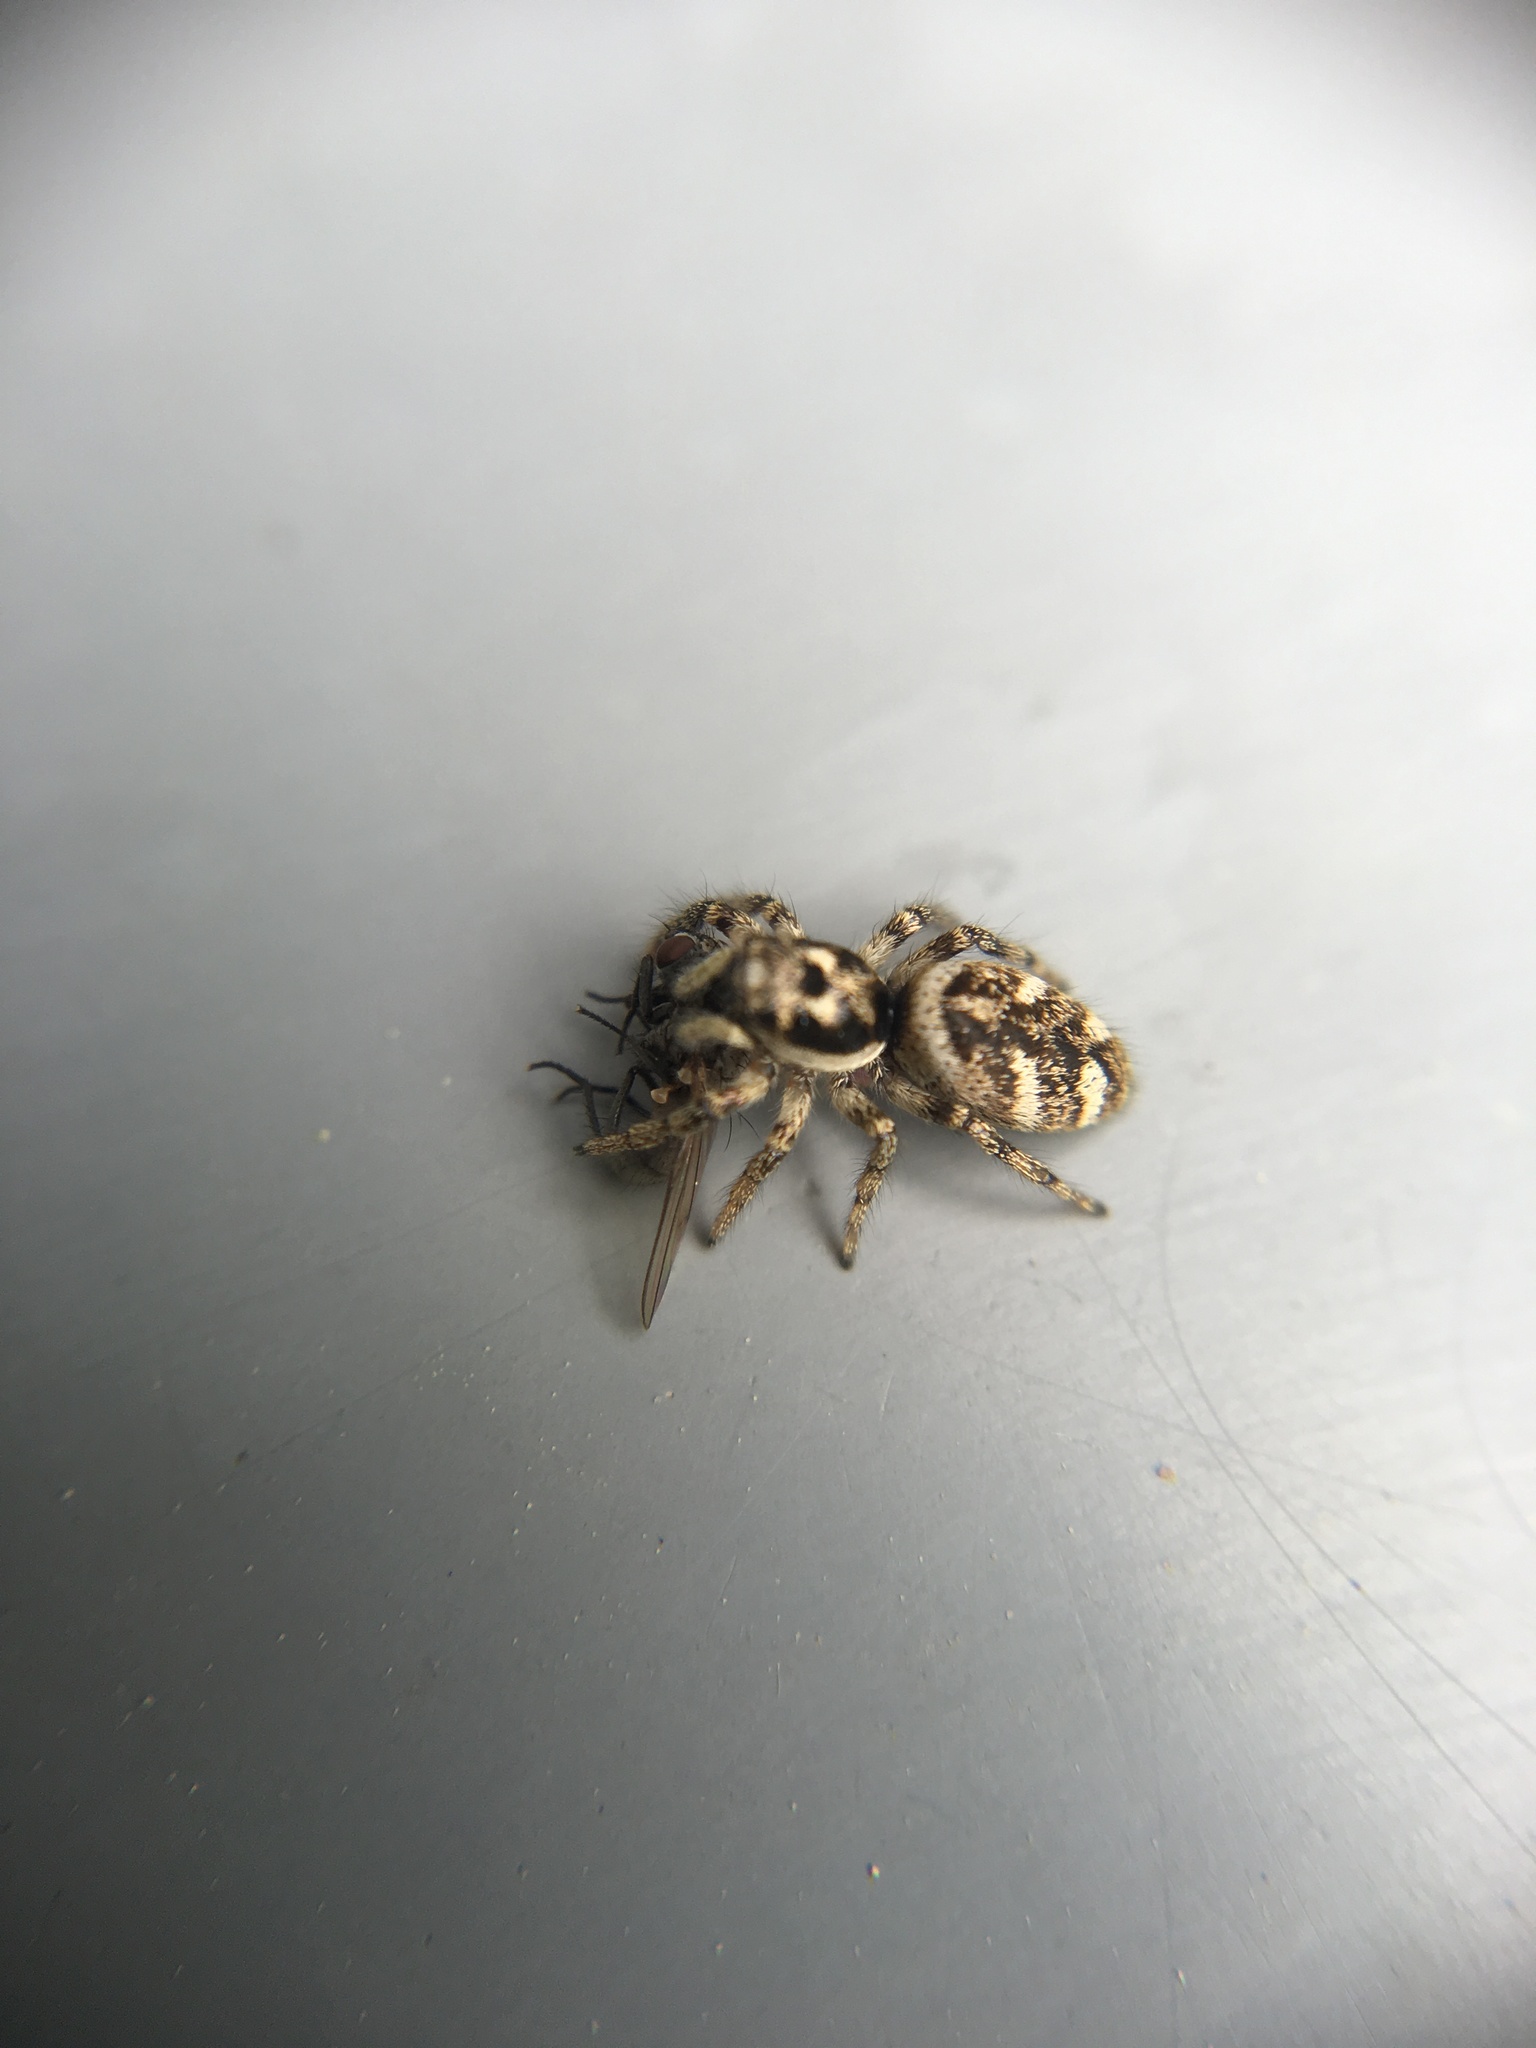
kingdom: Animalia
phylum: Arthropoda
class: Arachnida
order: Araneae
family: Salticidae
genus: Salticus
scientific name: Salticus scenicus
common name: Zebra jumper
